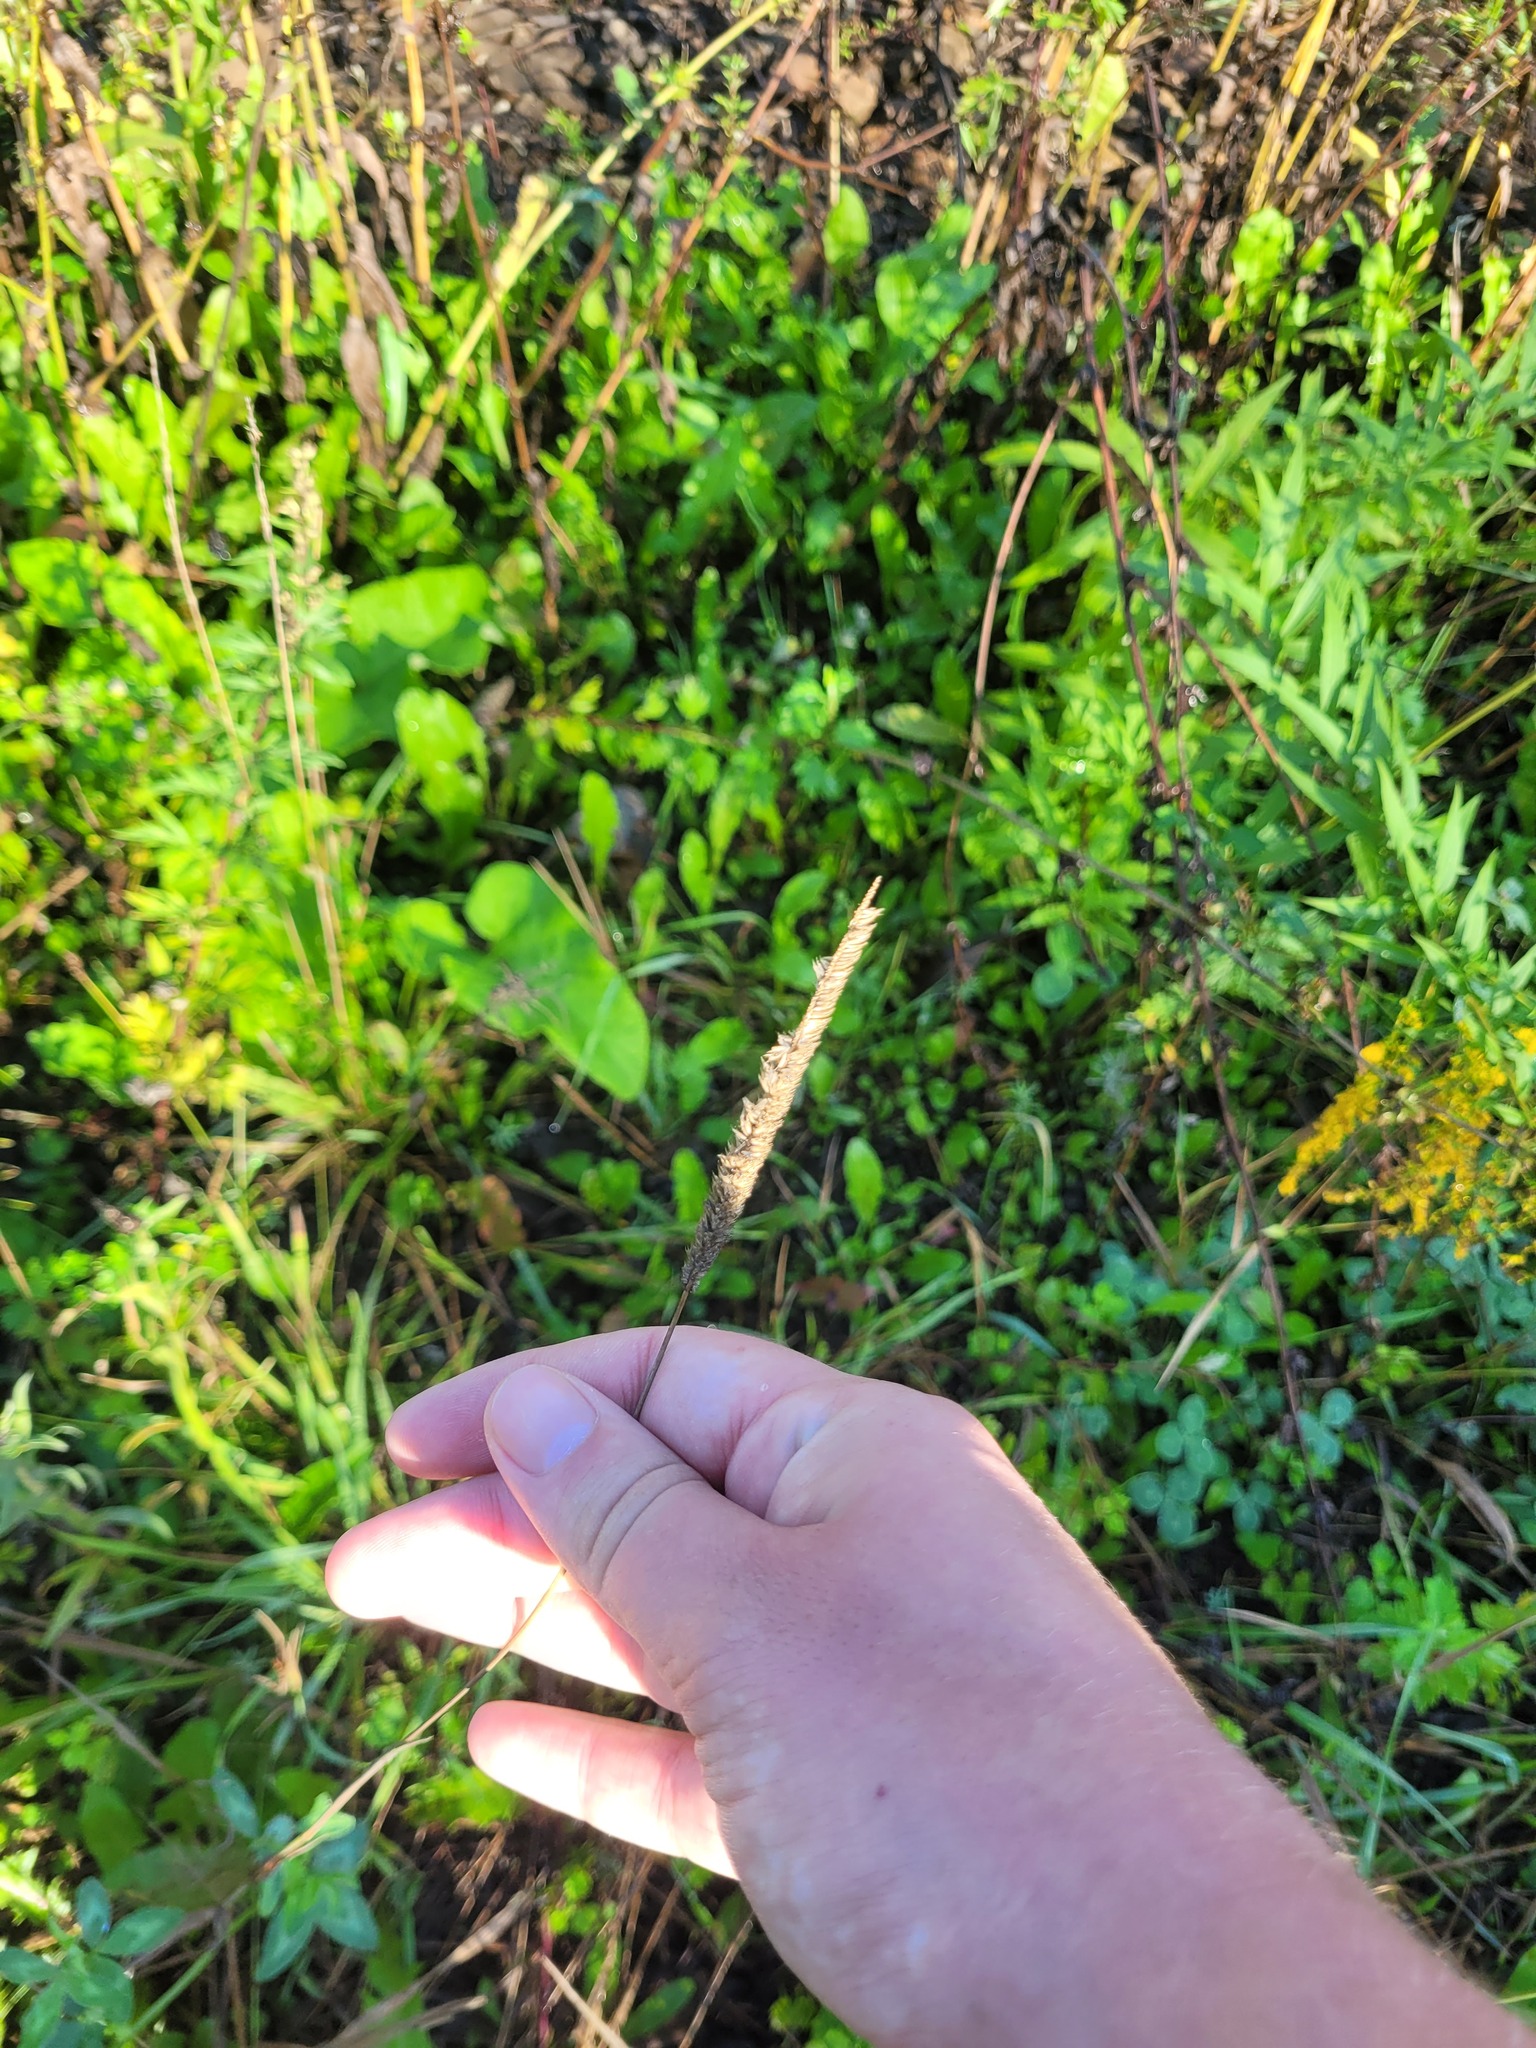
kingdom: Plantae
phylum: Tracheophyta
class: Liliopsida
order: Poales
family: Poaceae
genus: Phleum
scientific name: Phleum pratense
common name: Timothy grass
